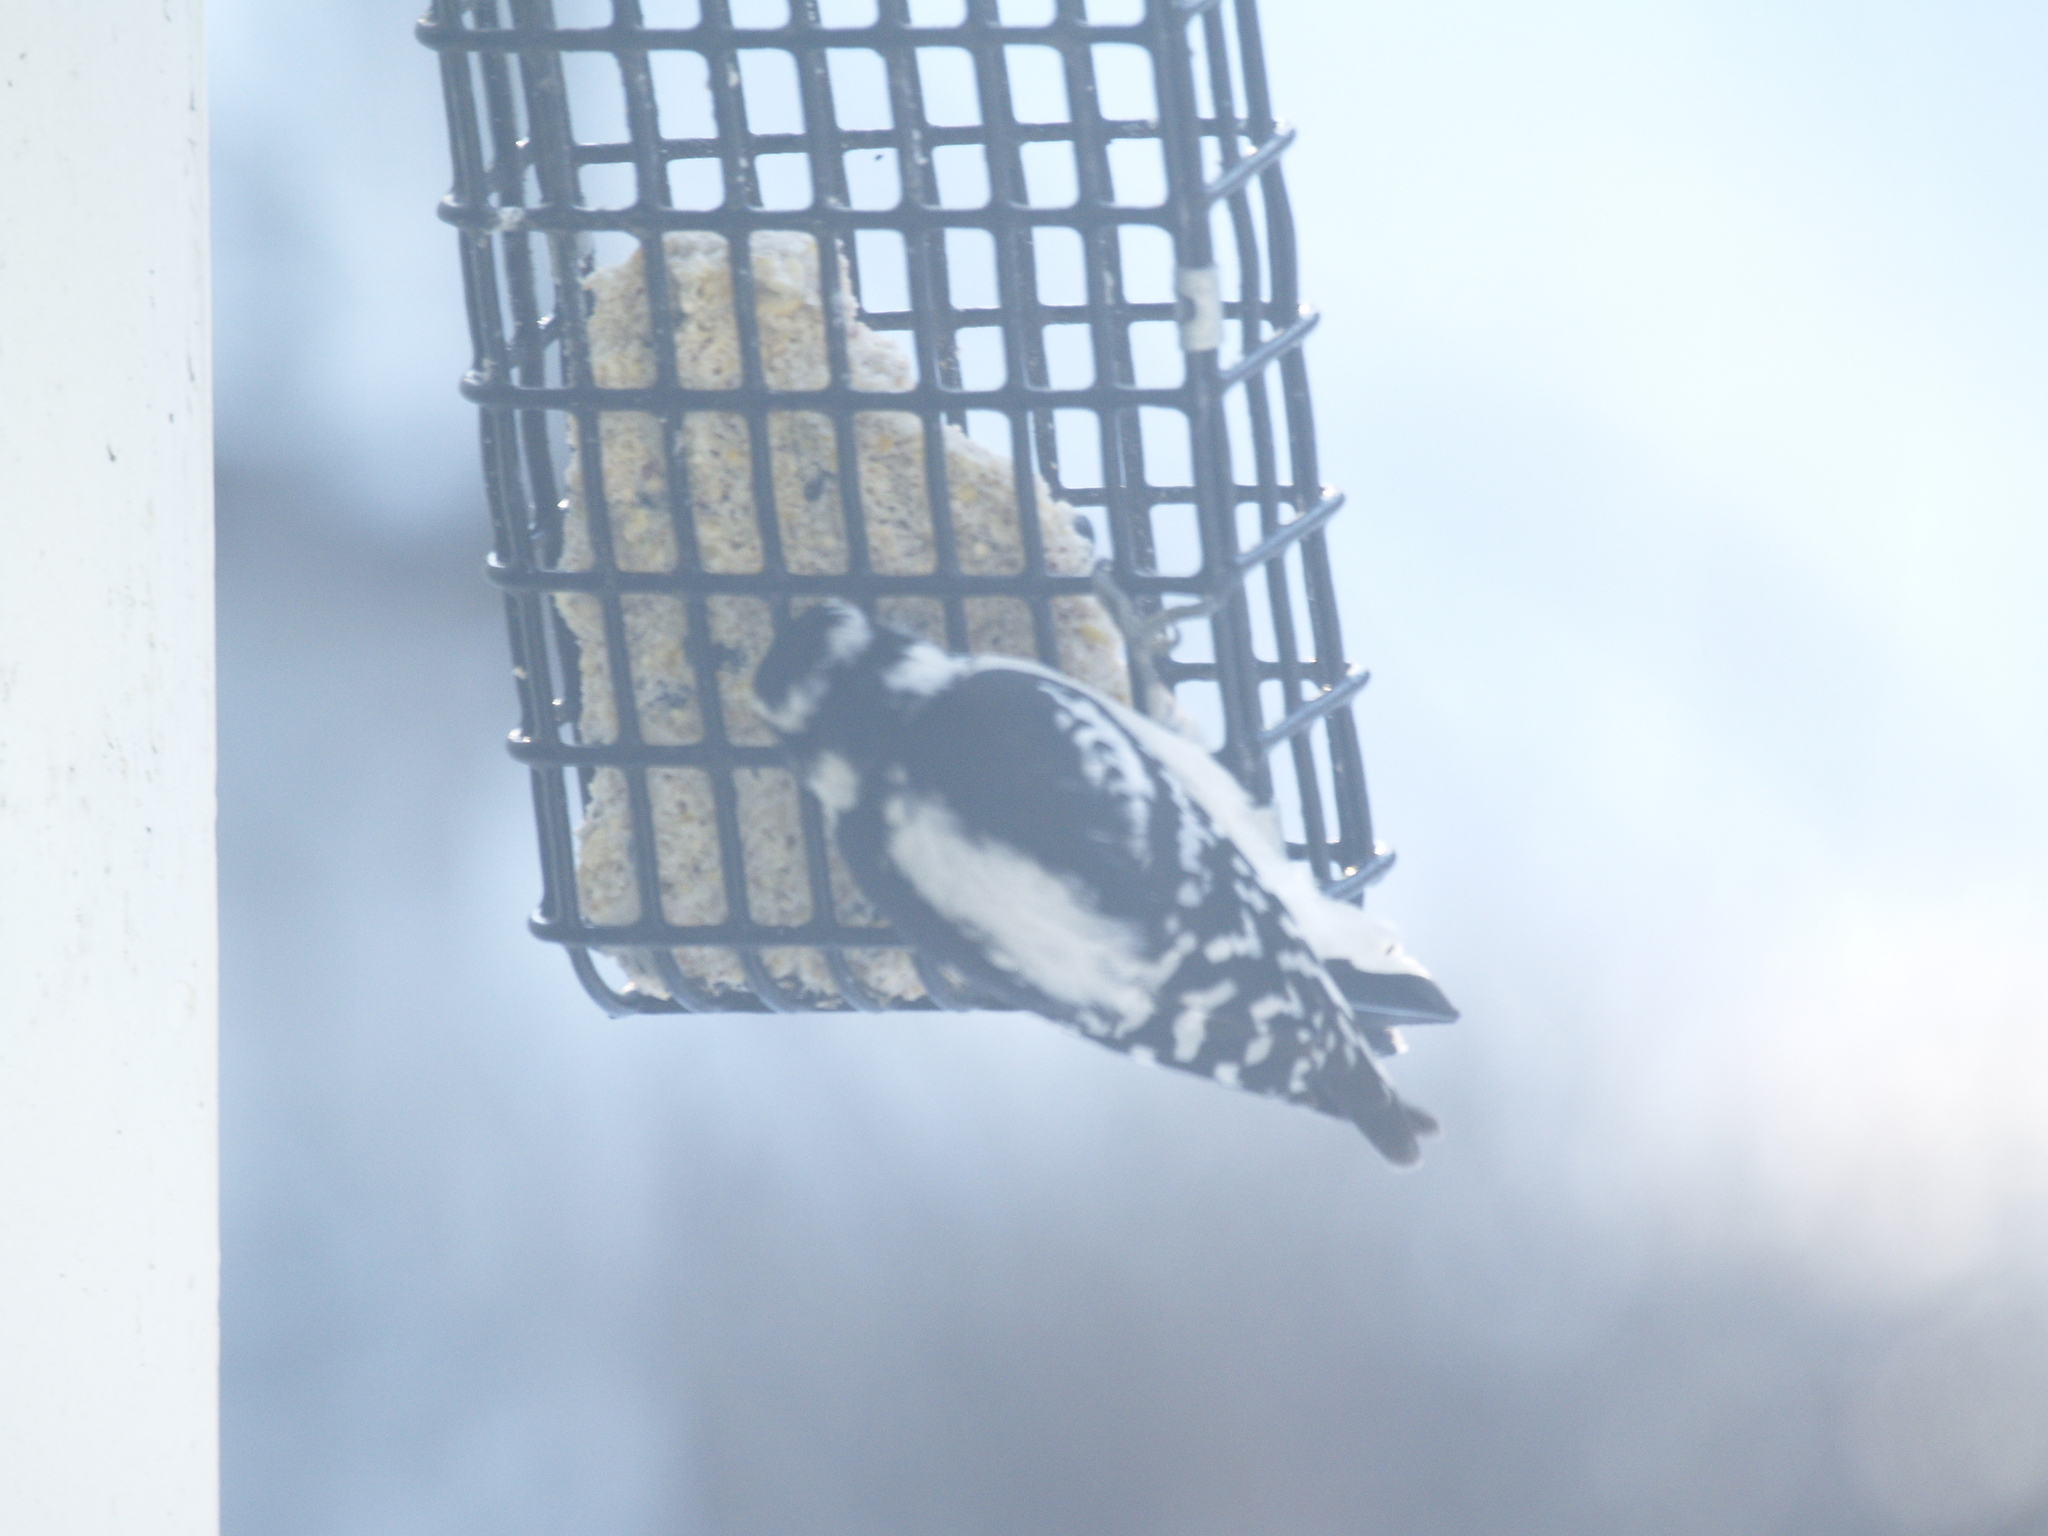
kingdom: Animalia
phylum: Chordata
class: Aves
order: Piciformes
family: Picidae
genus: Dryobates
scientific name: Dryobates pubescens
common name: Downy woodpecker
